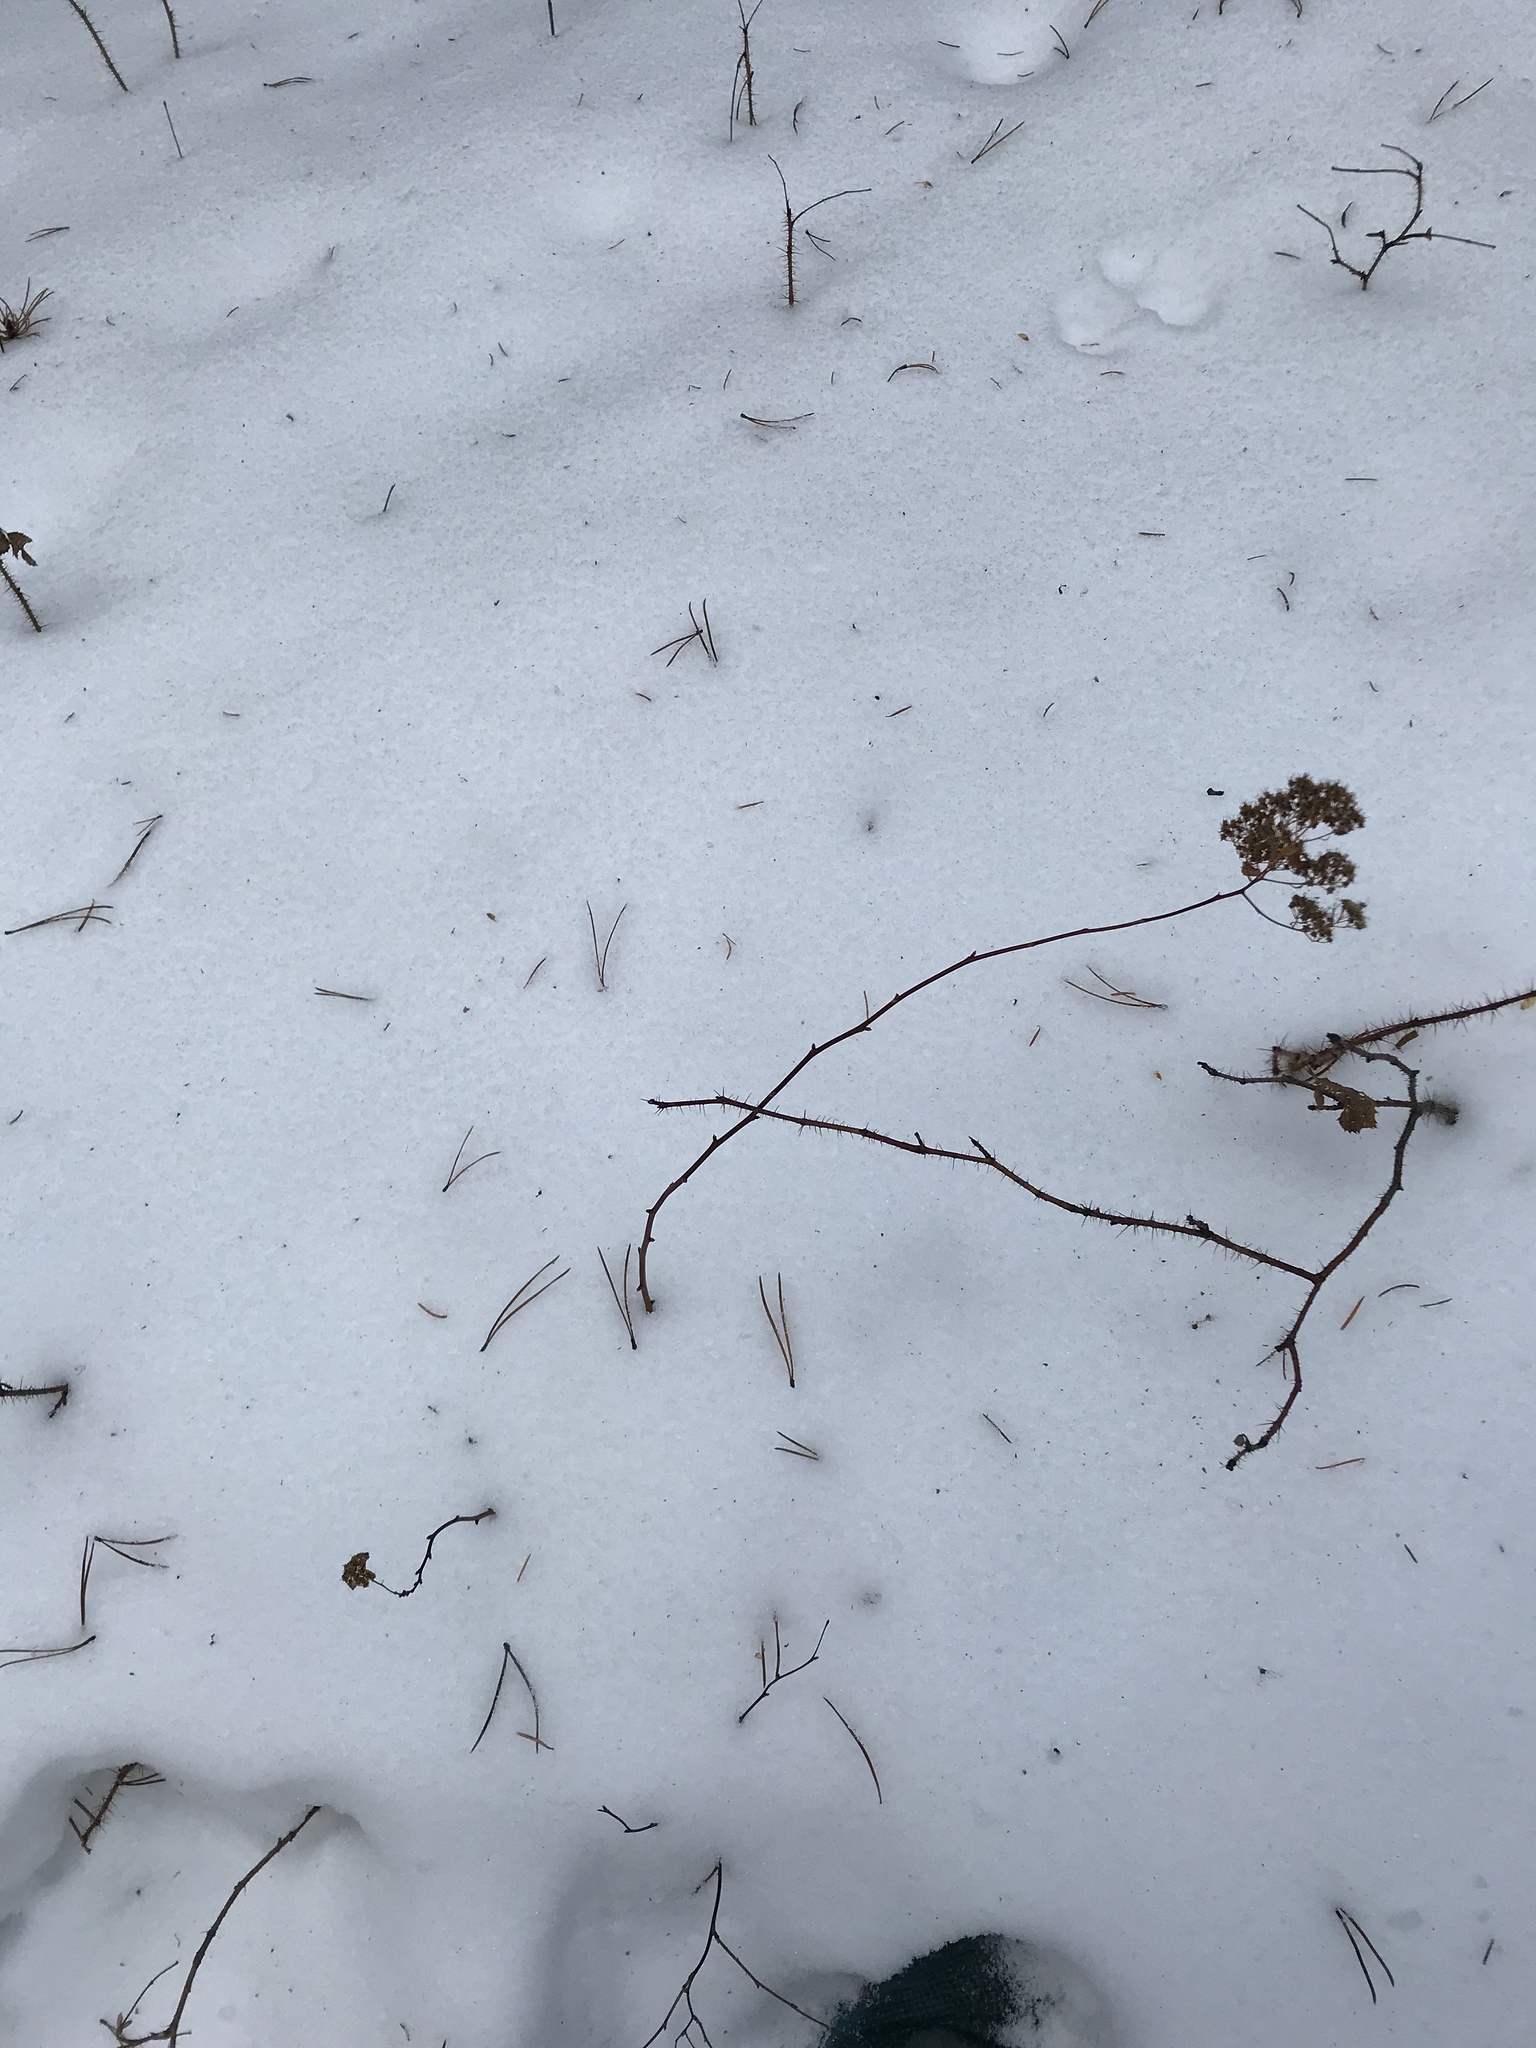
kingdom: Plantae
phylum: Tracheophyta
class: Magnoliopsida
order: Rosales
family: Rosaceae
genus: Spiraea
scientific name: Spiraea lucida
